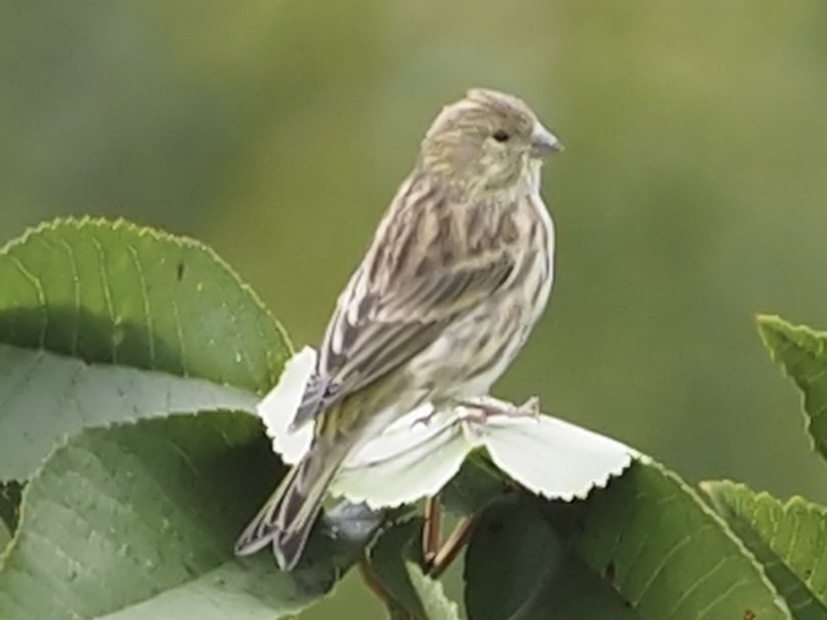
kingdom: Animalia
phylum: Chordata
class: Aves
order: Passeriformes
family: Fringillidae
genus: Serinus
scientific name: Serinus serinus
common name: European serin
